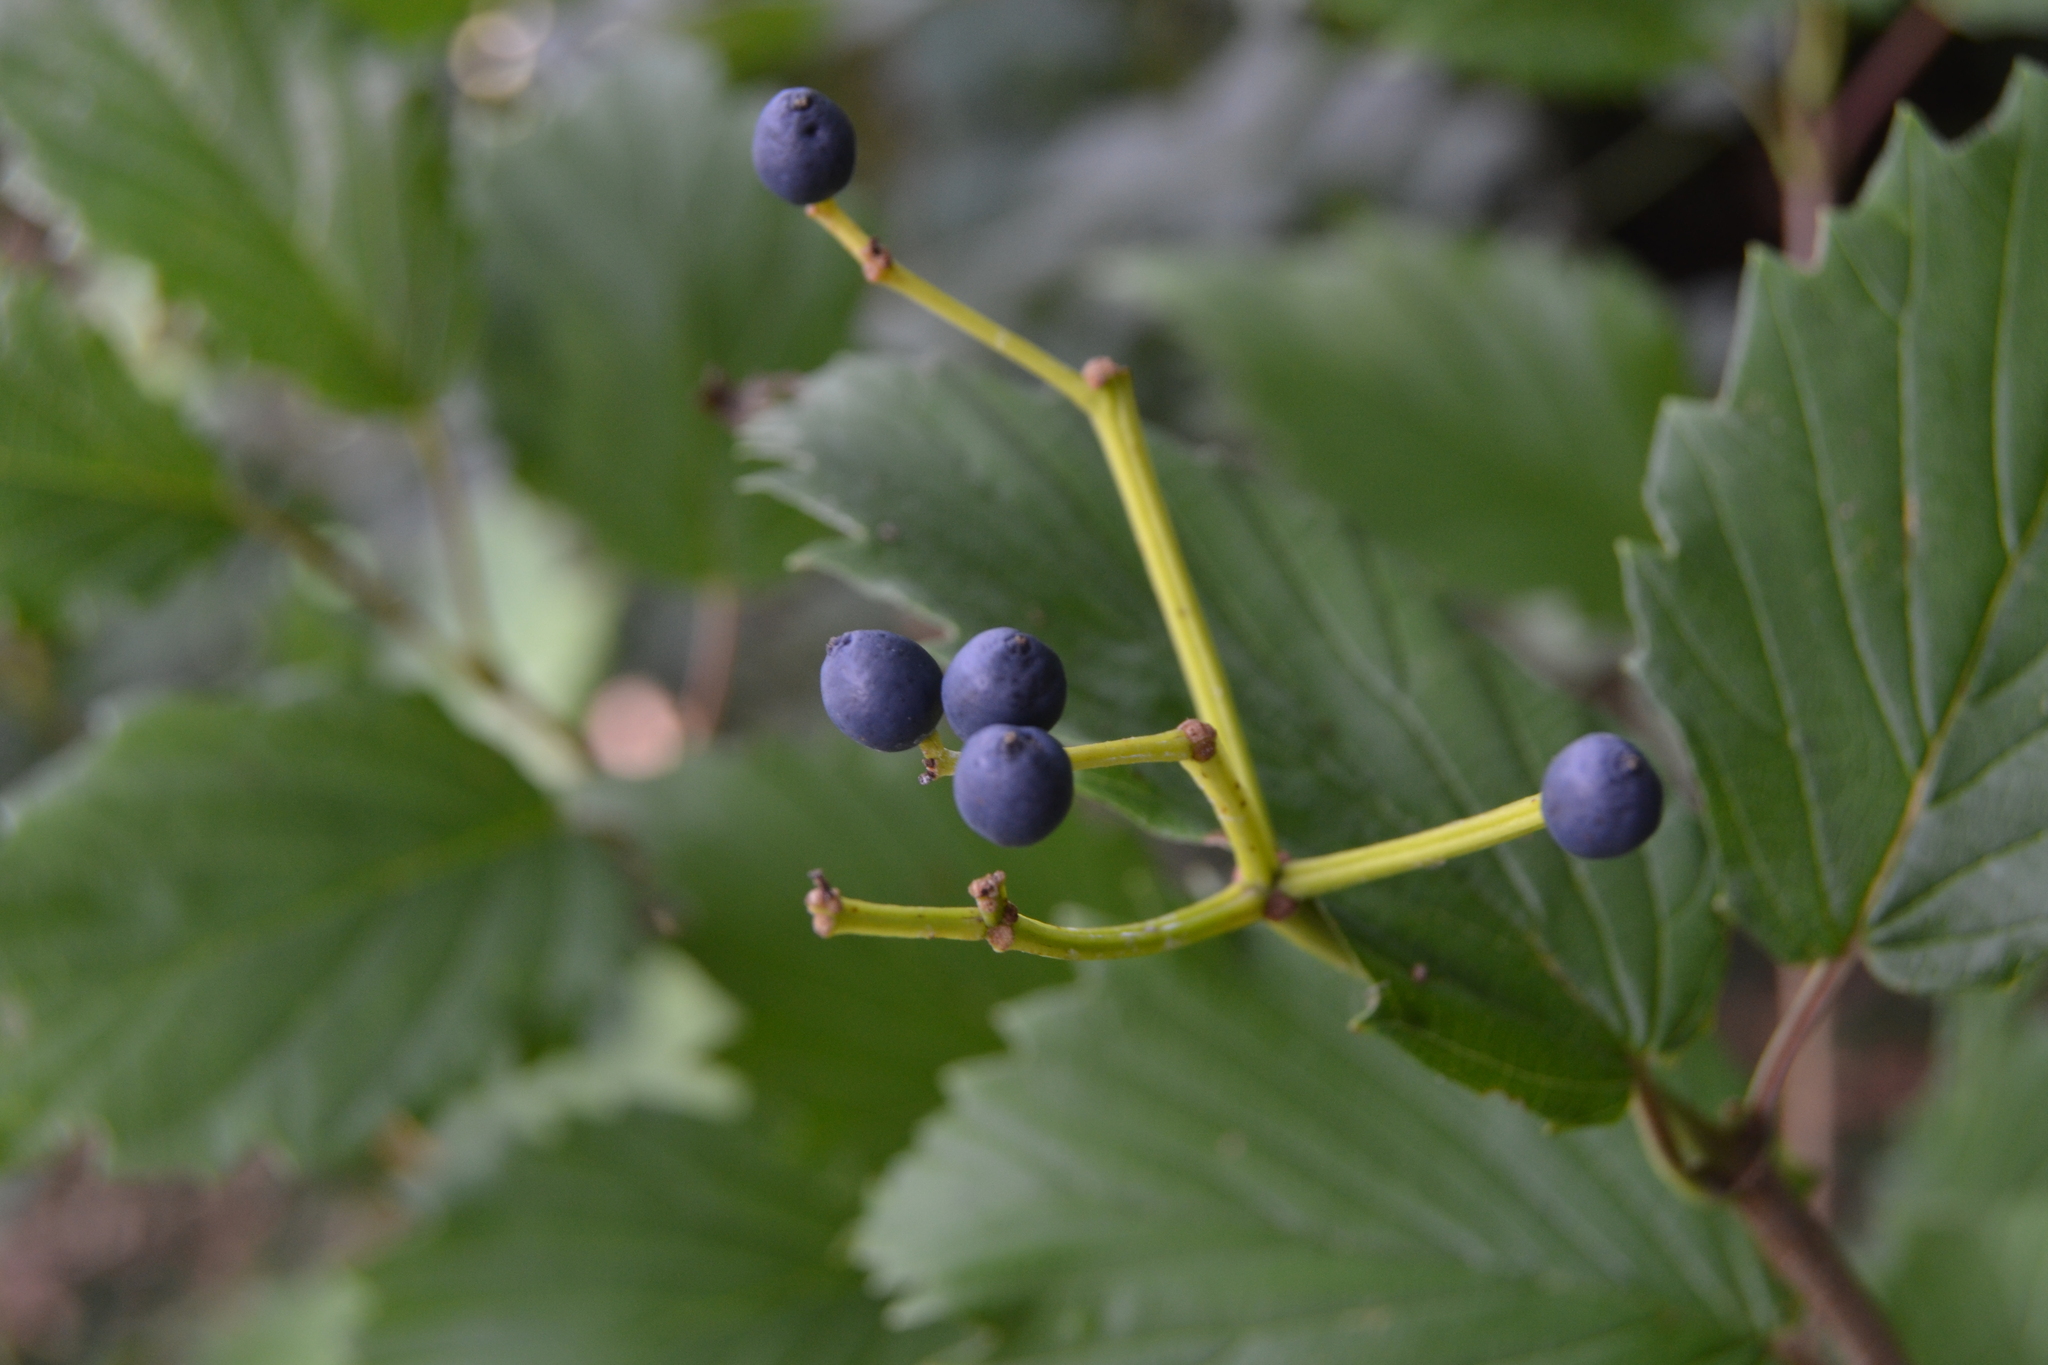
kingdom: Plantae
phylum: Tracheophyta
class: Magnoliopsida
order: Dipsacales
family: Viburnaceae
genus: Viburnum
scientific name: Viburnum recognitum
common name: Northern arrow-wood
